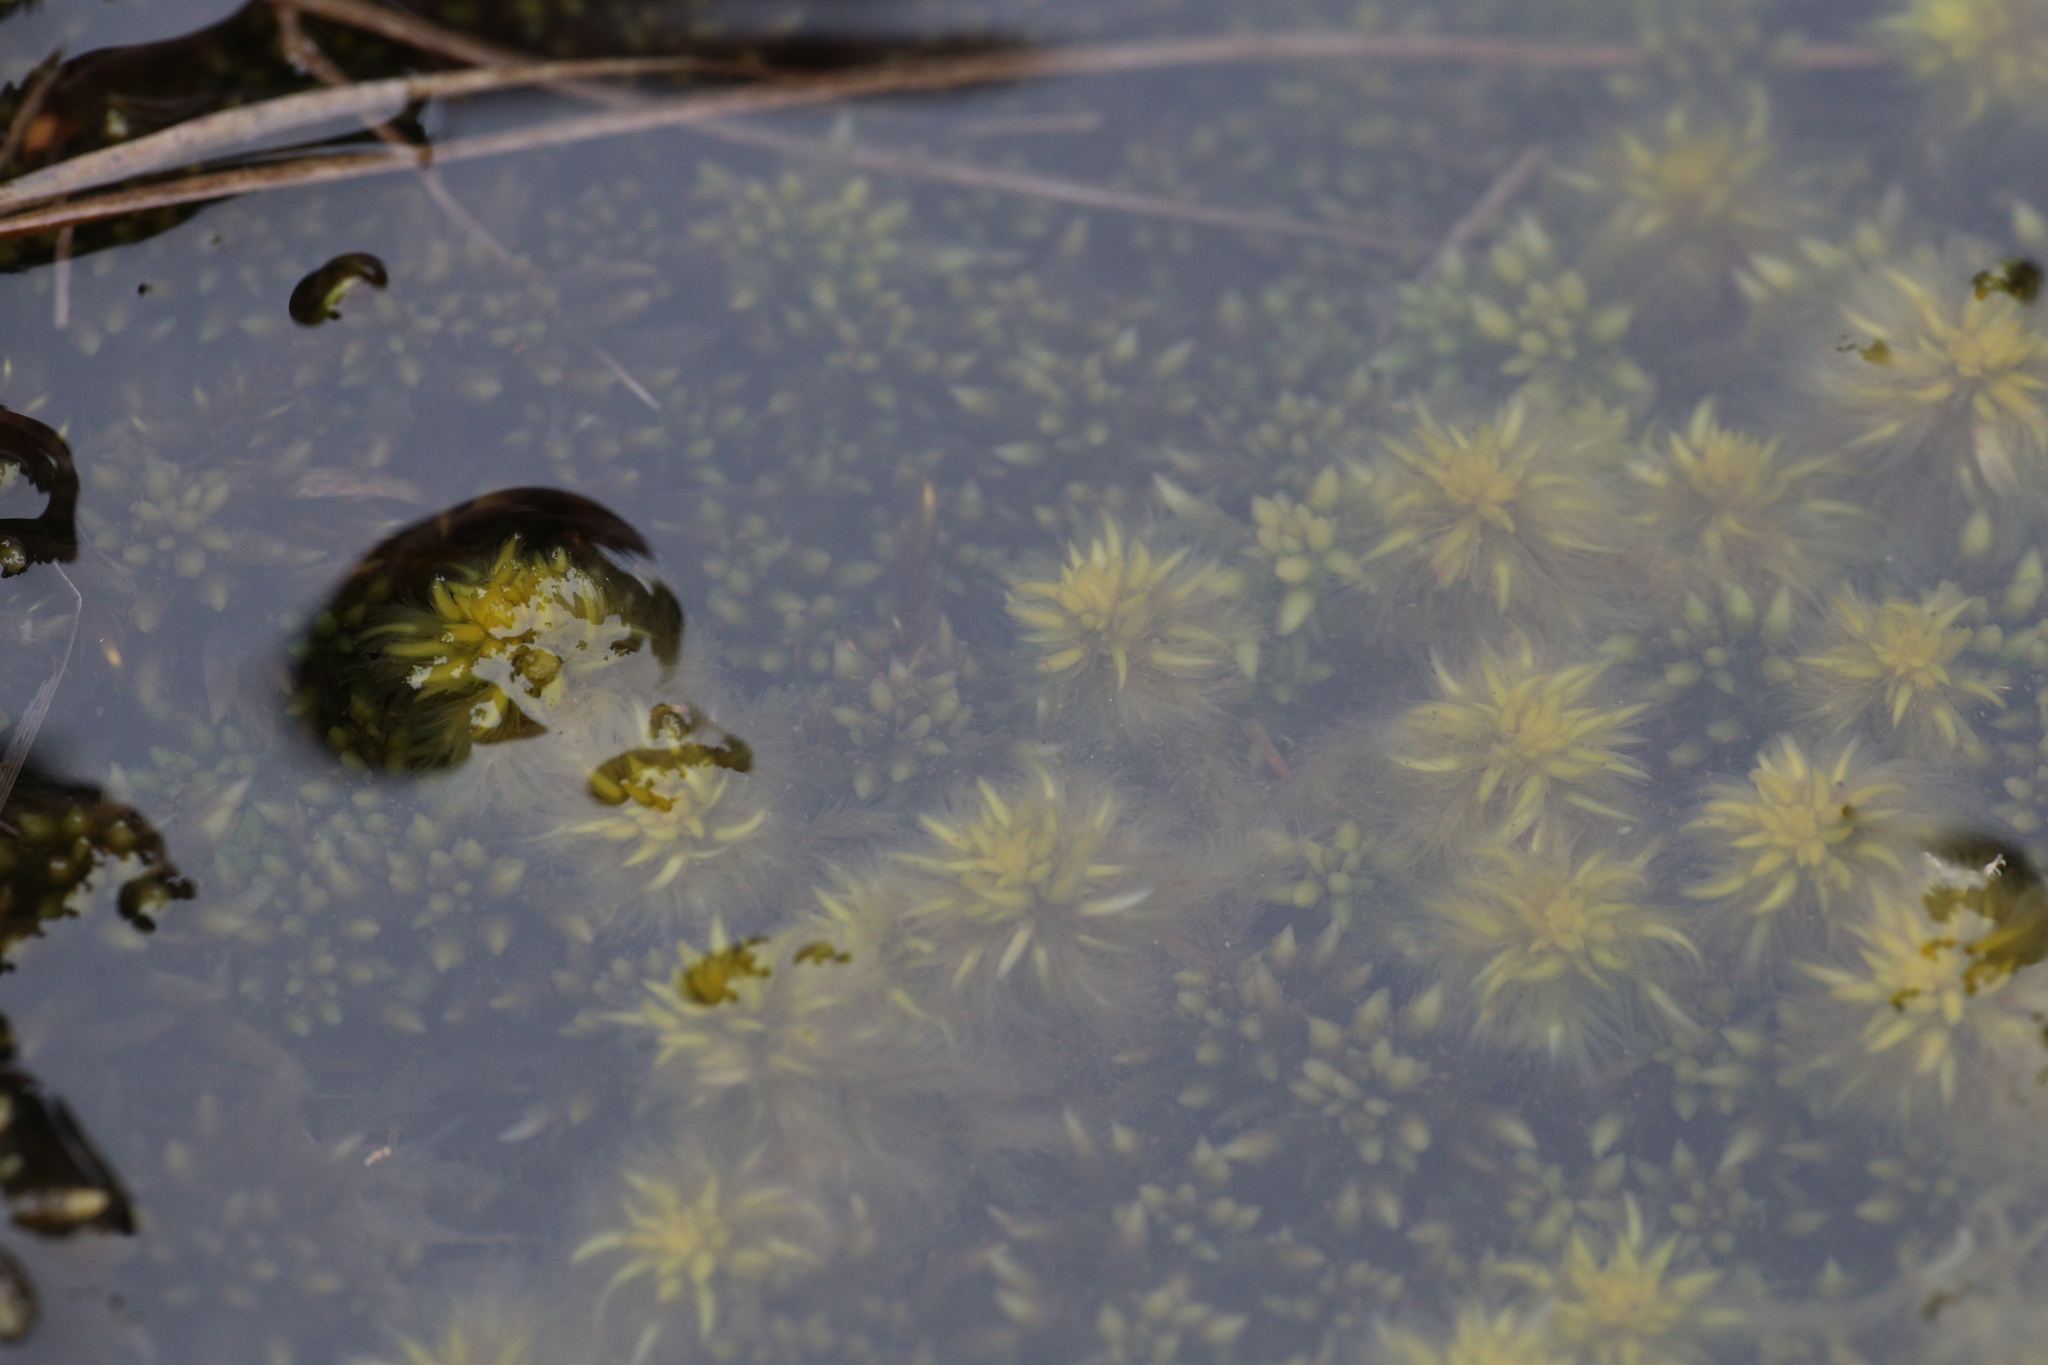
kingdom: Plantae
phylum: Bryophyta
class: Sphagnopsida
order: Sphagnales
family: Sphagnaceae
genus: Sphagnum
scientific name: Sphagnum cristatum
